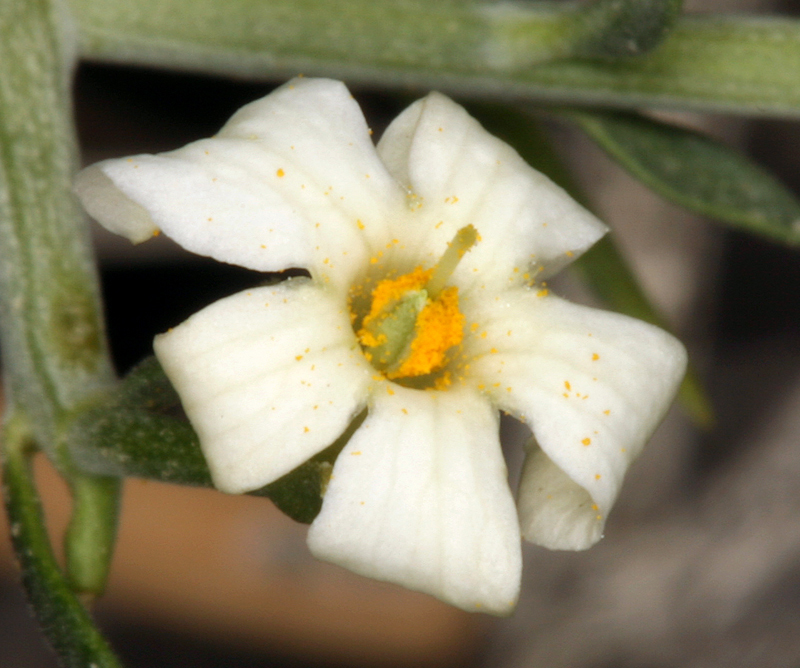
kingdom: Plantae
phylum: Tracheophyta
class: Magnoliopsida
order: Lamiales
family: Oleaceae
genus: Menodora
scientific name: Menodora spinescens
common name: Spiny menodora
